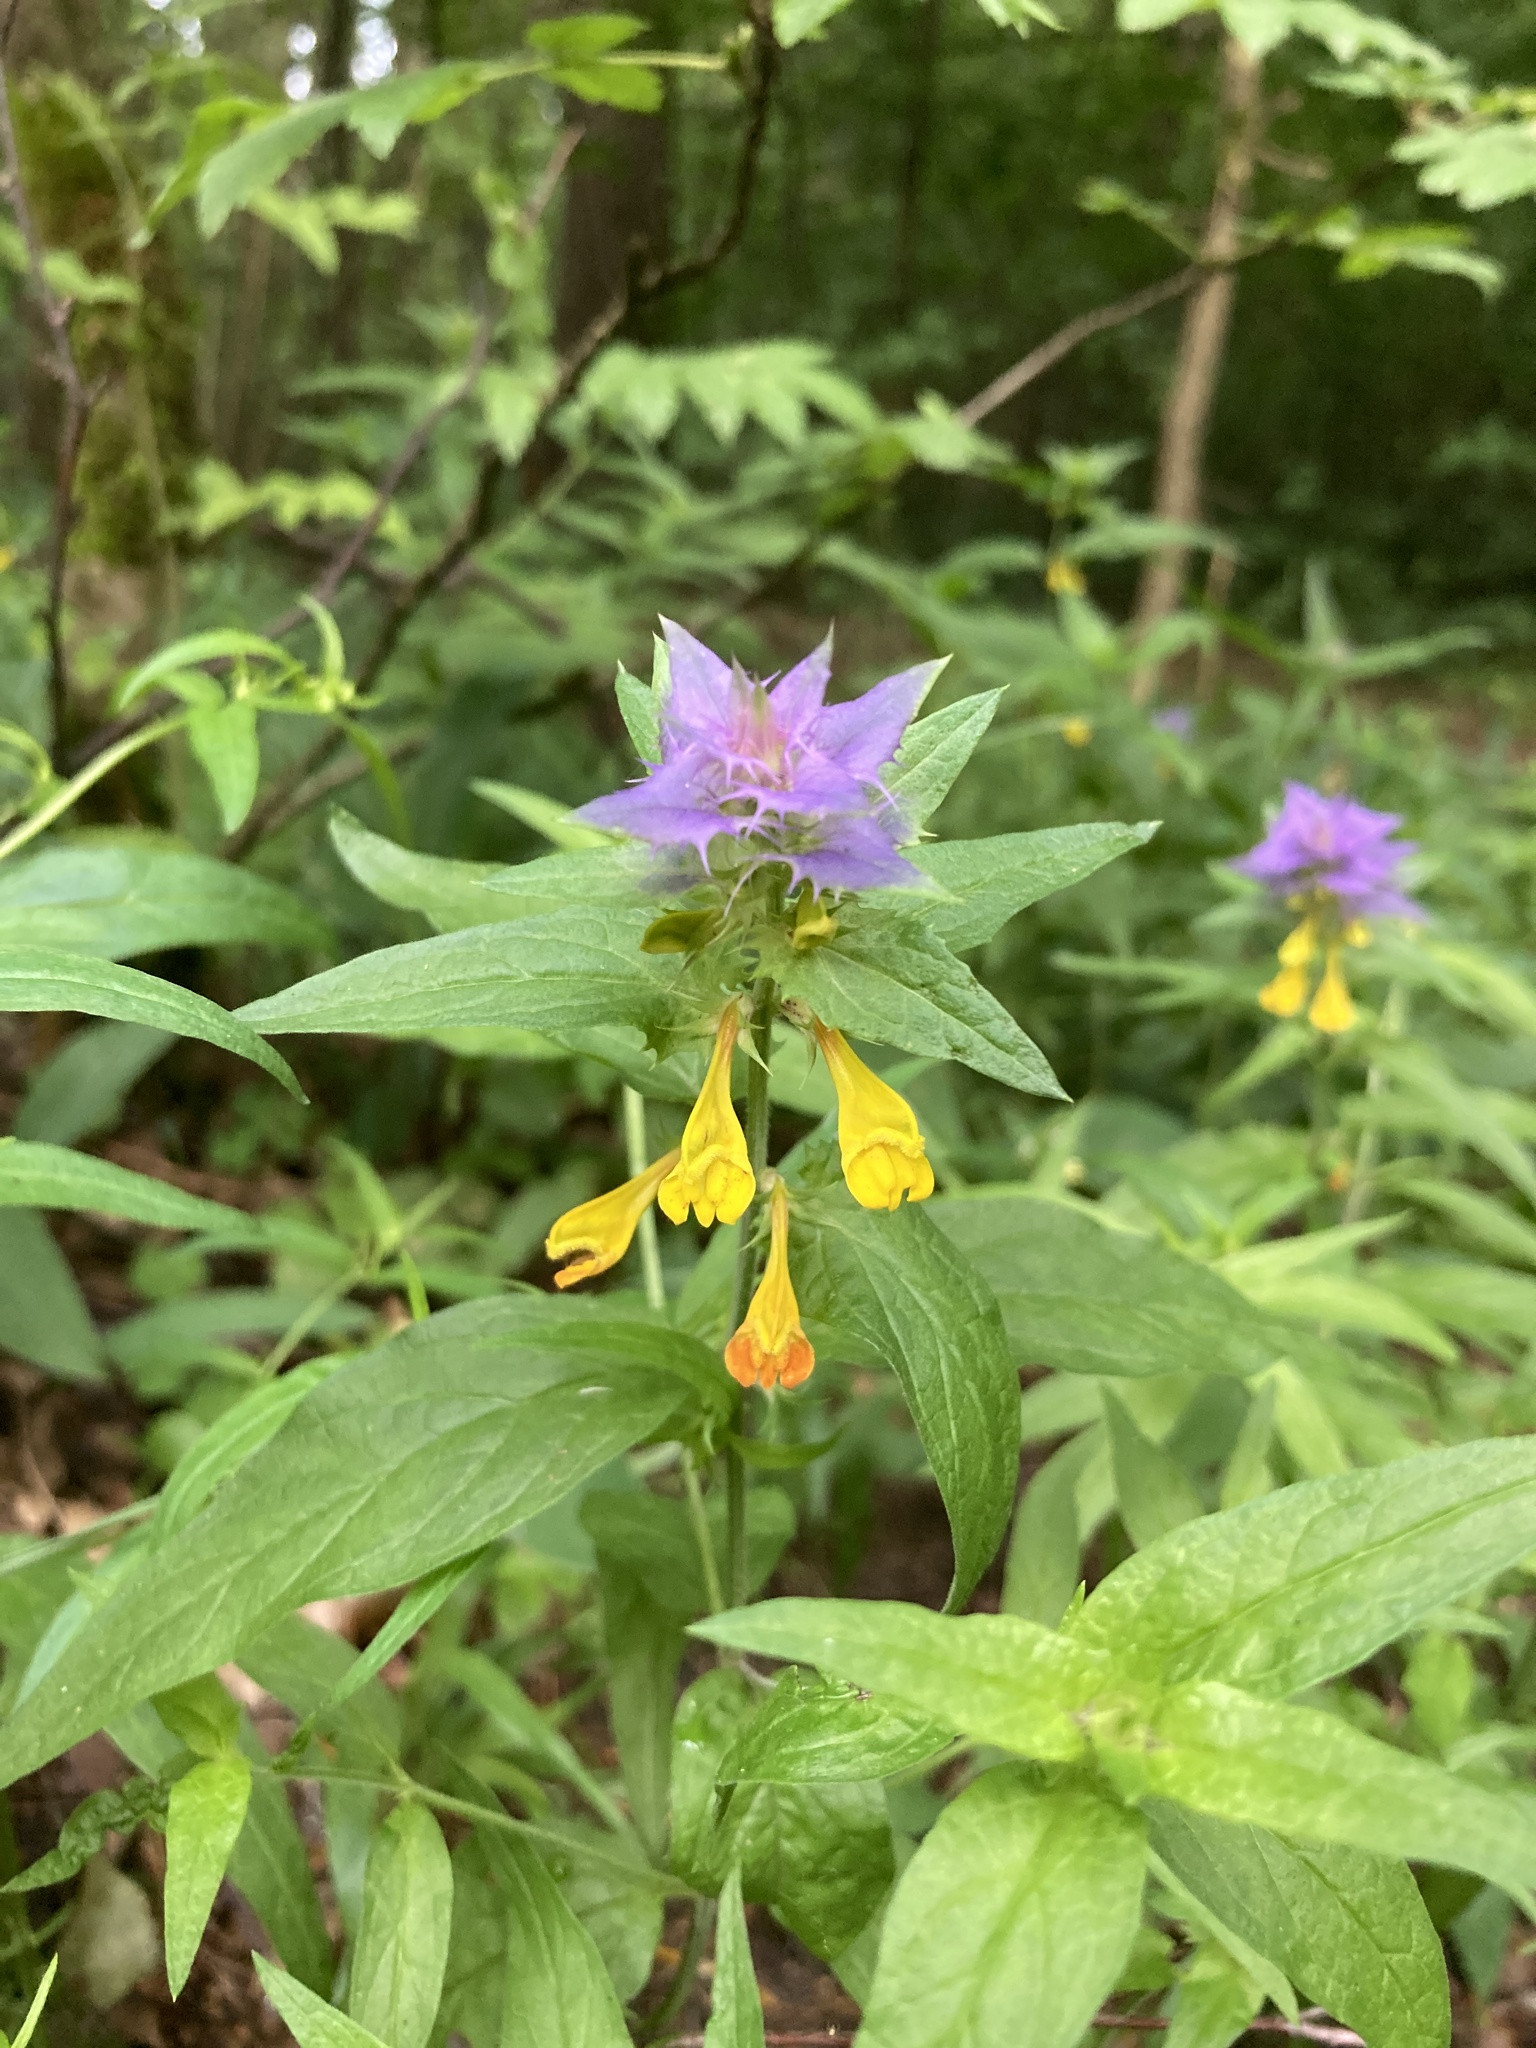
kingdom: Plantae
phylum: Tracheophyta
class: Magnoliopsida
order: Lamiales
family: Orobanchaceae
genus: Melampyrum
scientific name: Melampyrum nemorosum
